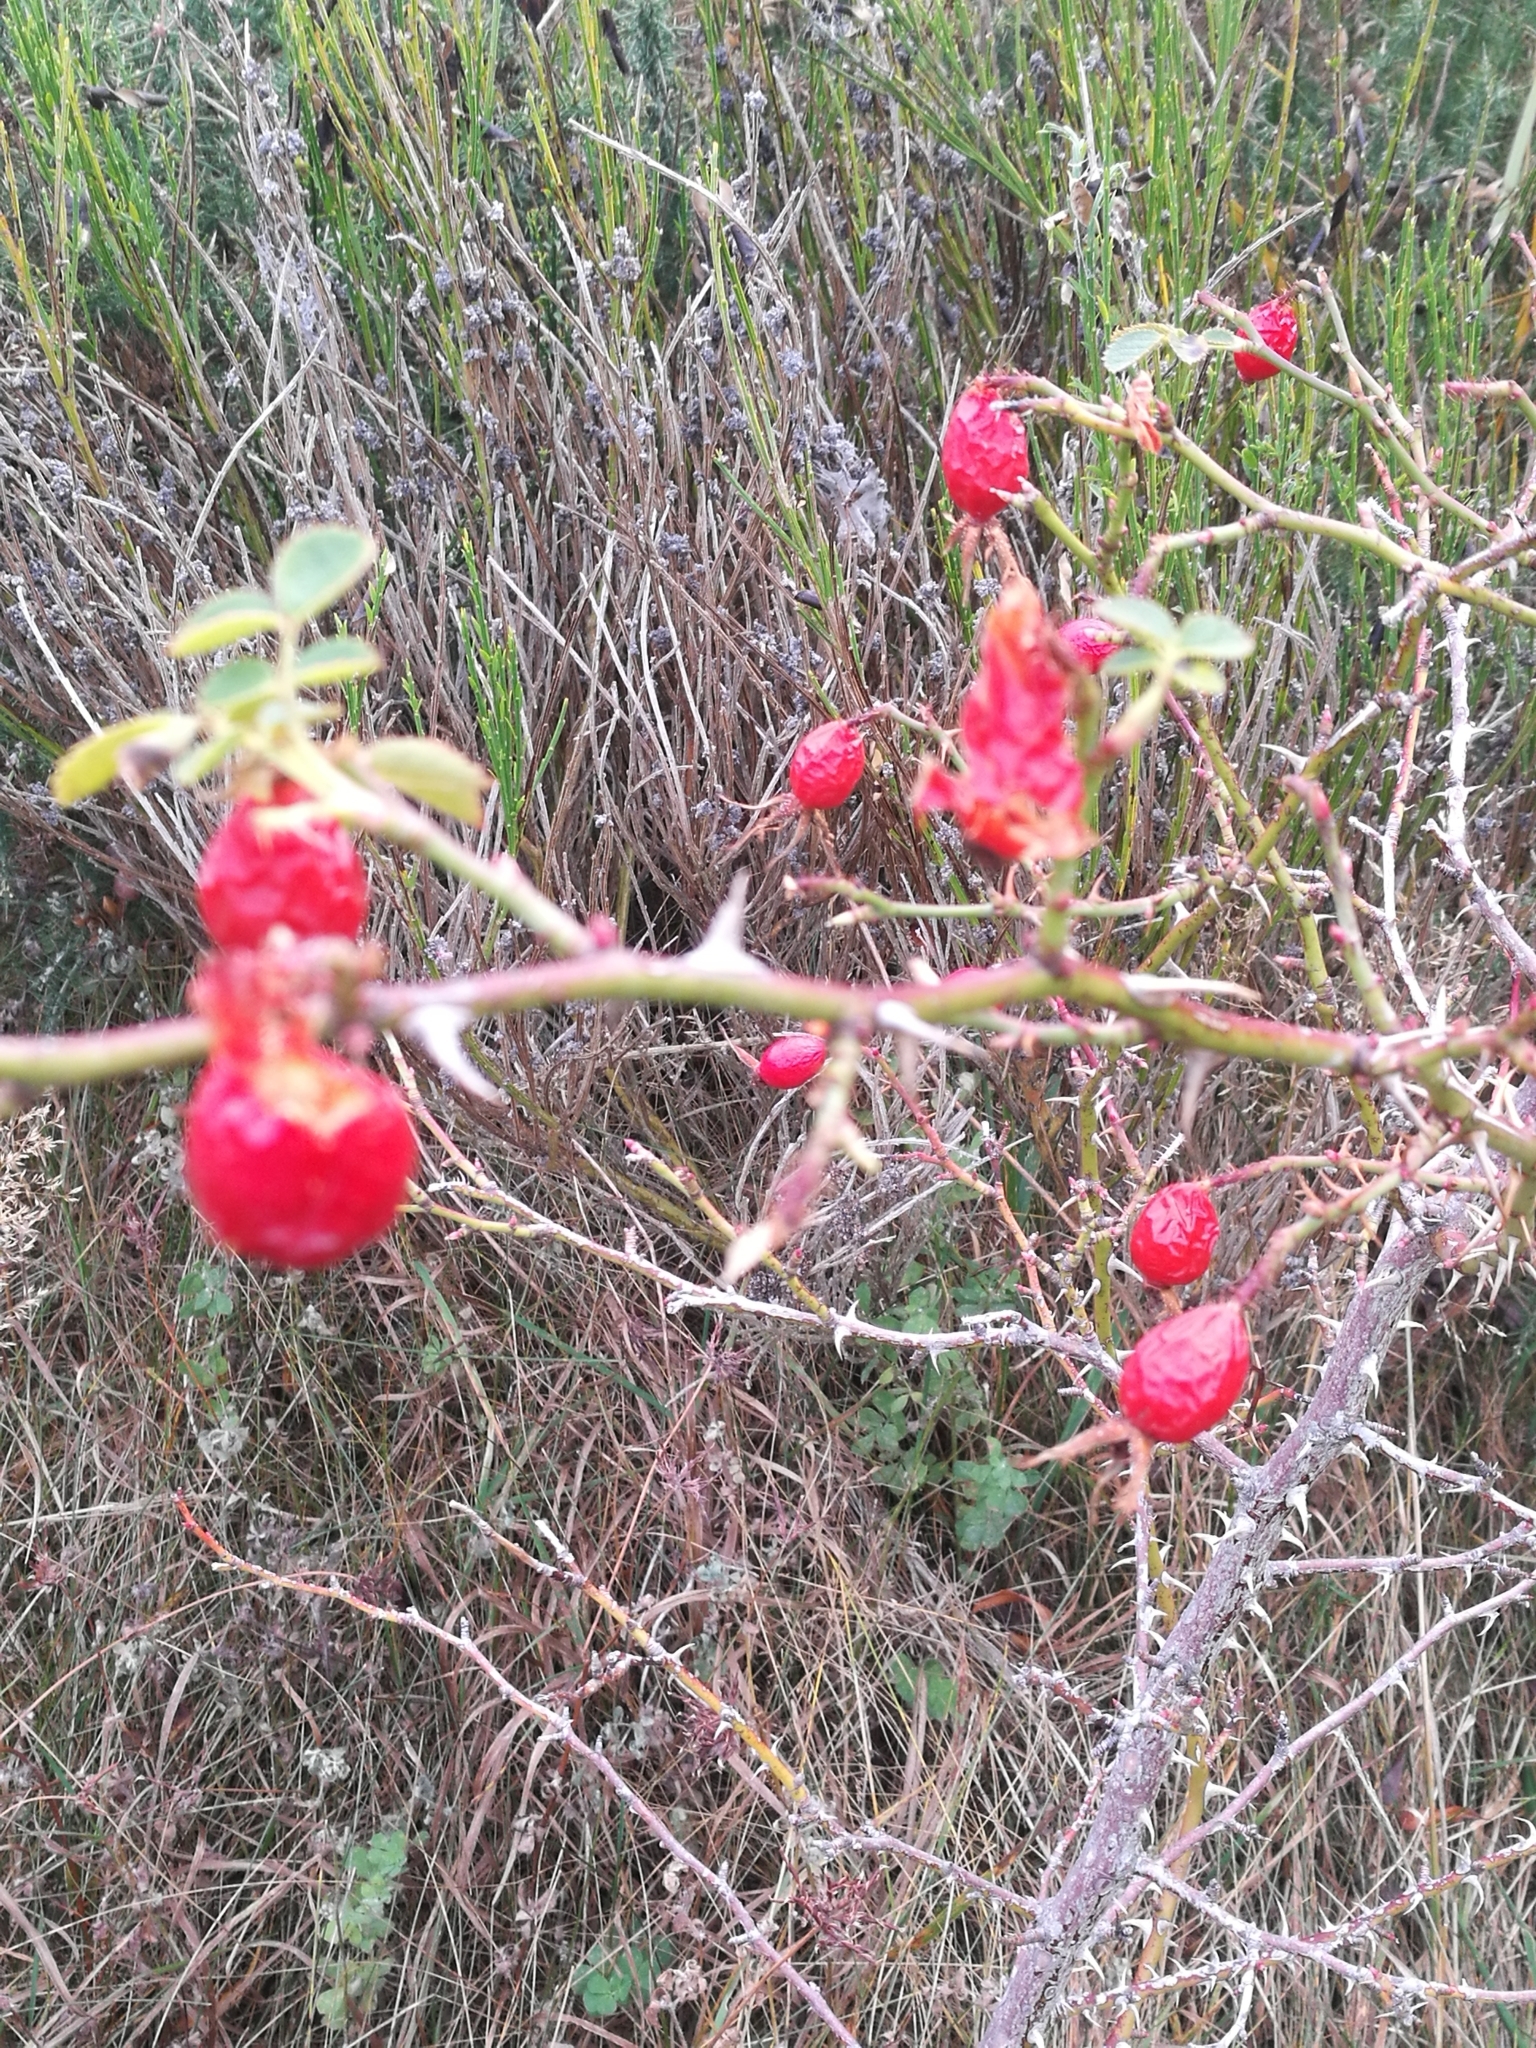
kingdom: Plantae
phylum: Tracheophyta
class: Magnoliopsida
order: Rosales
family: Rosaceae
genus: Rosa
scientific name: Rosa rubiginosa
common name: Sweet-briar
